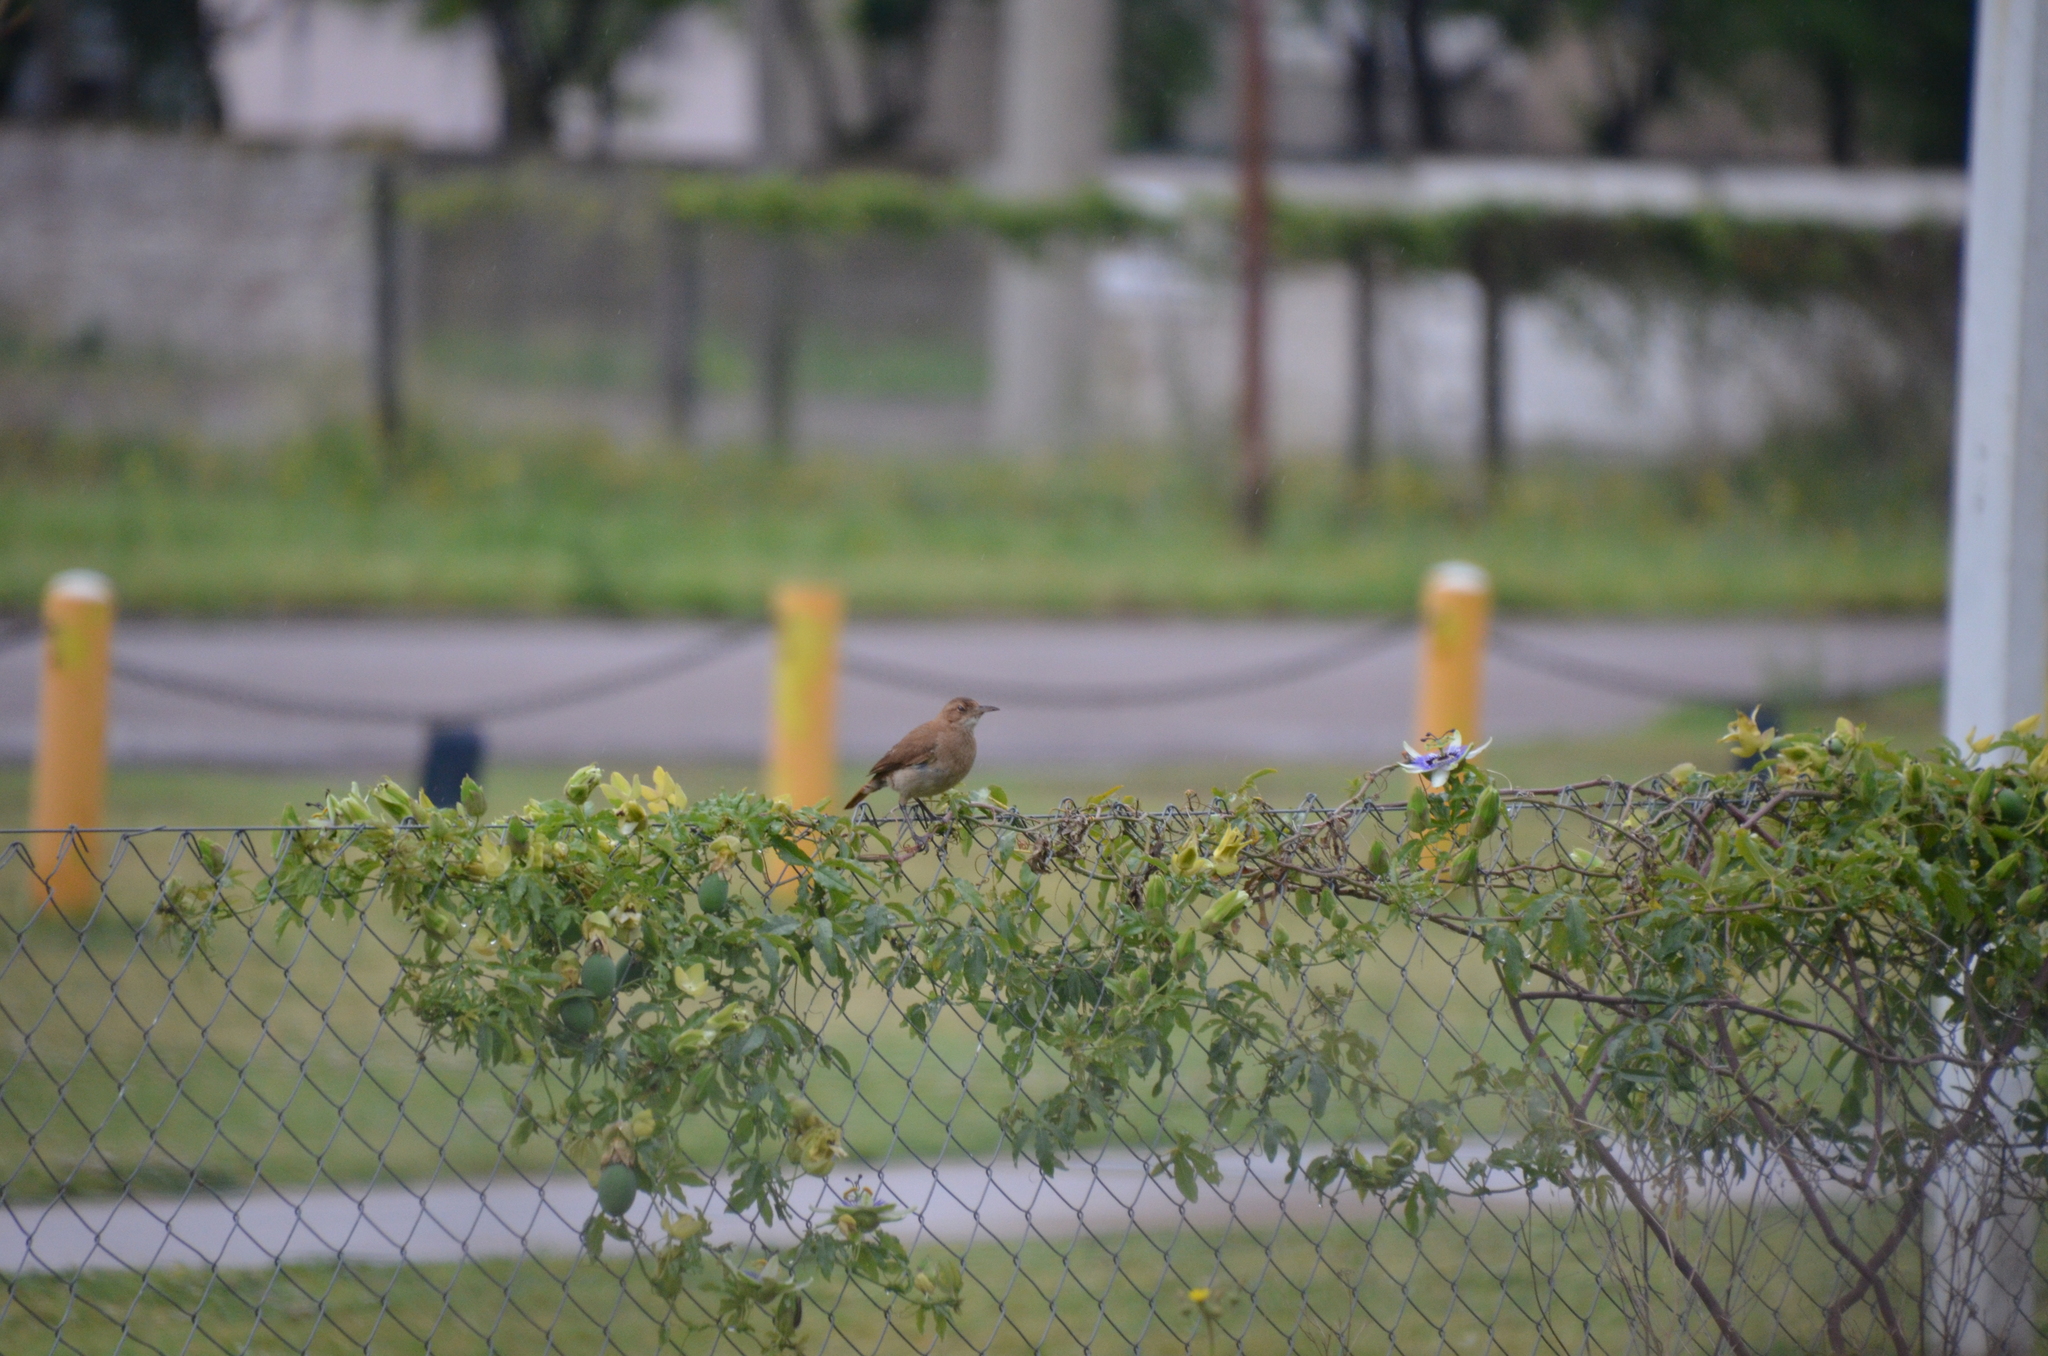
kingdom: Animalia
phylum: Chordata
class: Aves
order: Passeriformes
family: Furnariidae
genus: Furnarius
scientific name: Furnarius rufus
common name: Rufous hornero
